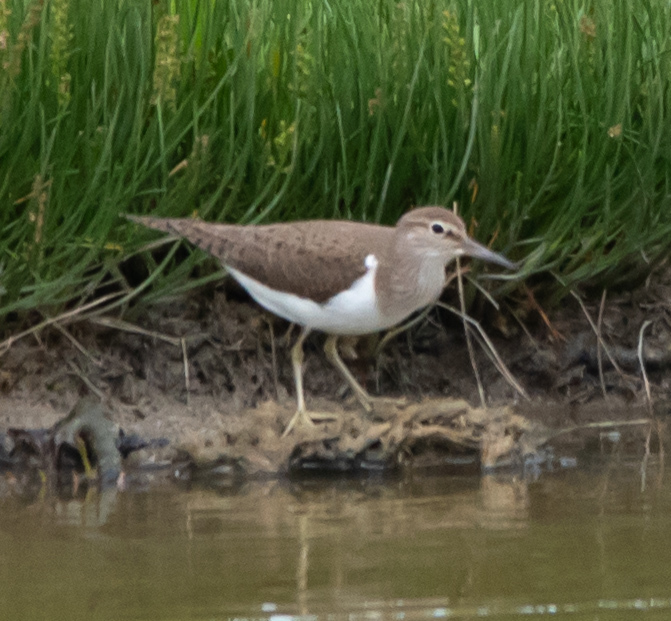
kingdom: Animalia
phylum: Chordata
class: Aves
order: Charadriiformes
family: Scolopacidae
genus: Actitis
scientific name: Actitis hypoleucos
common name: Common sandpiper
